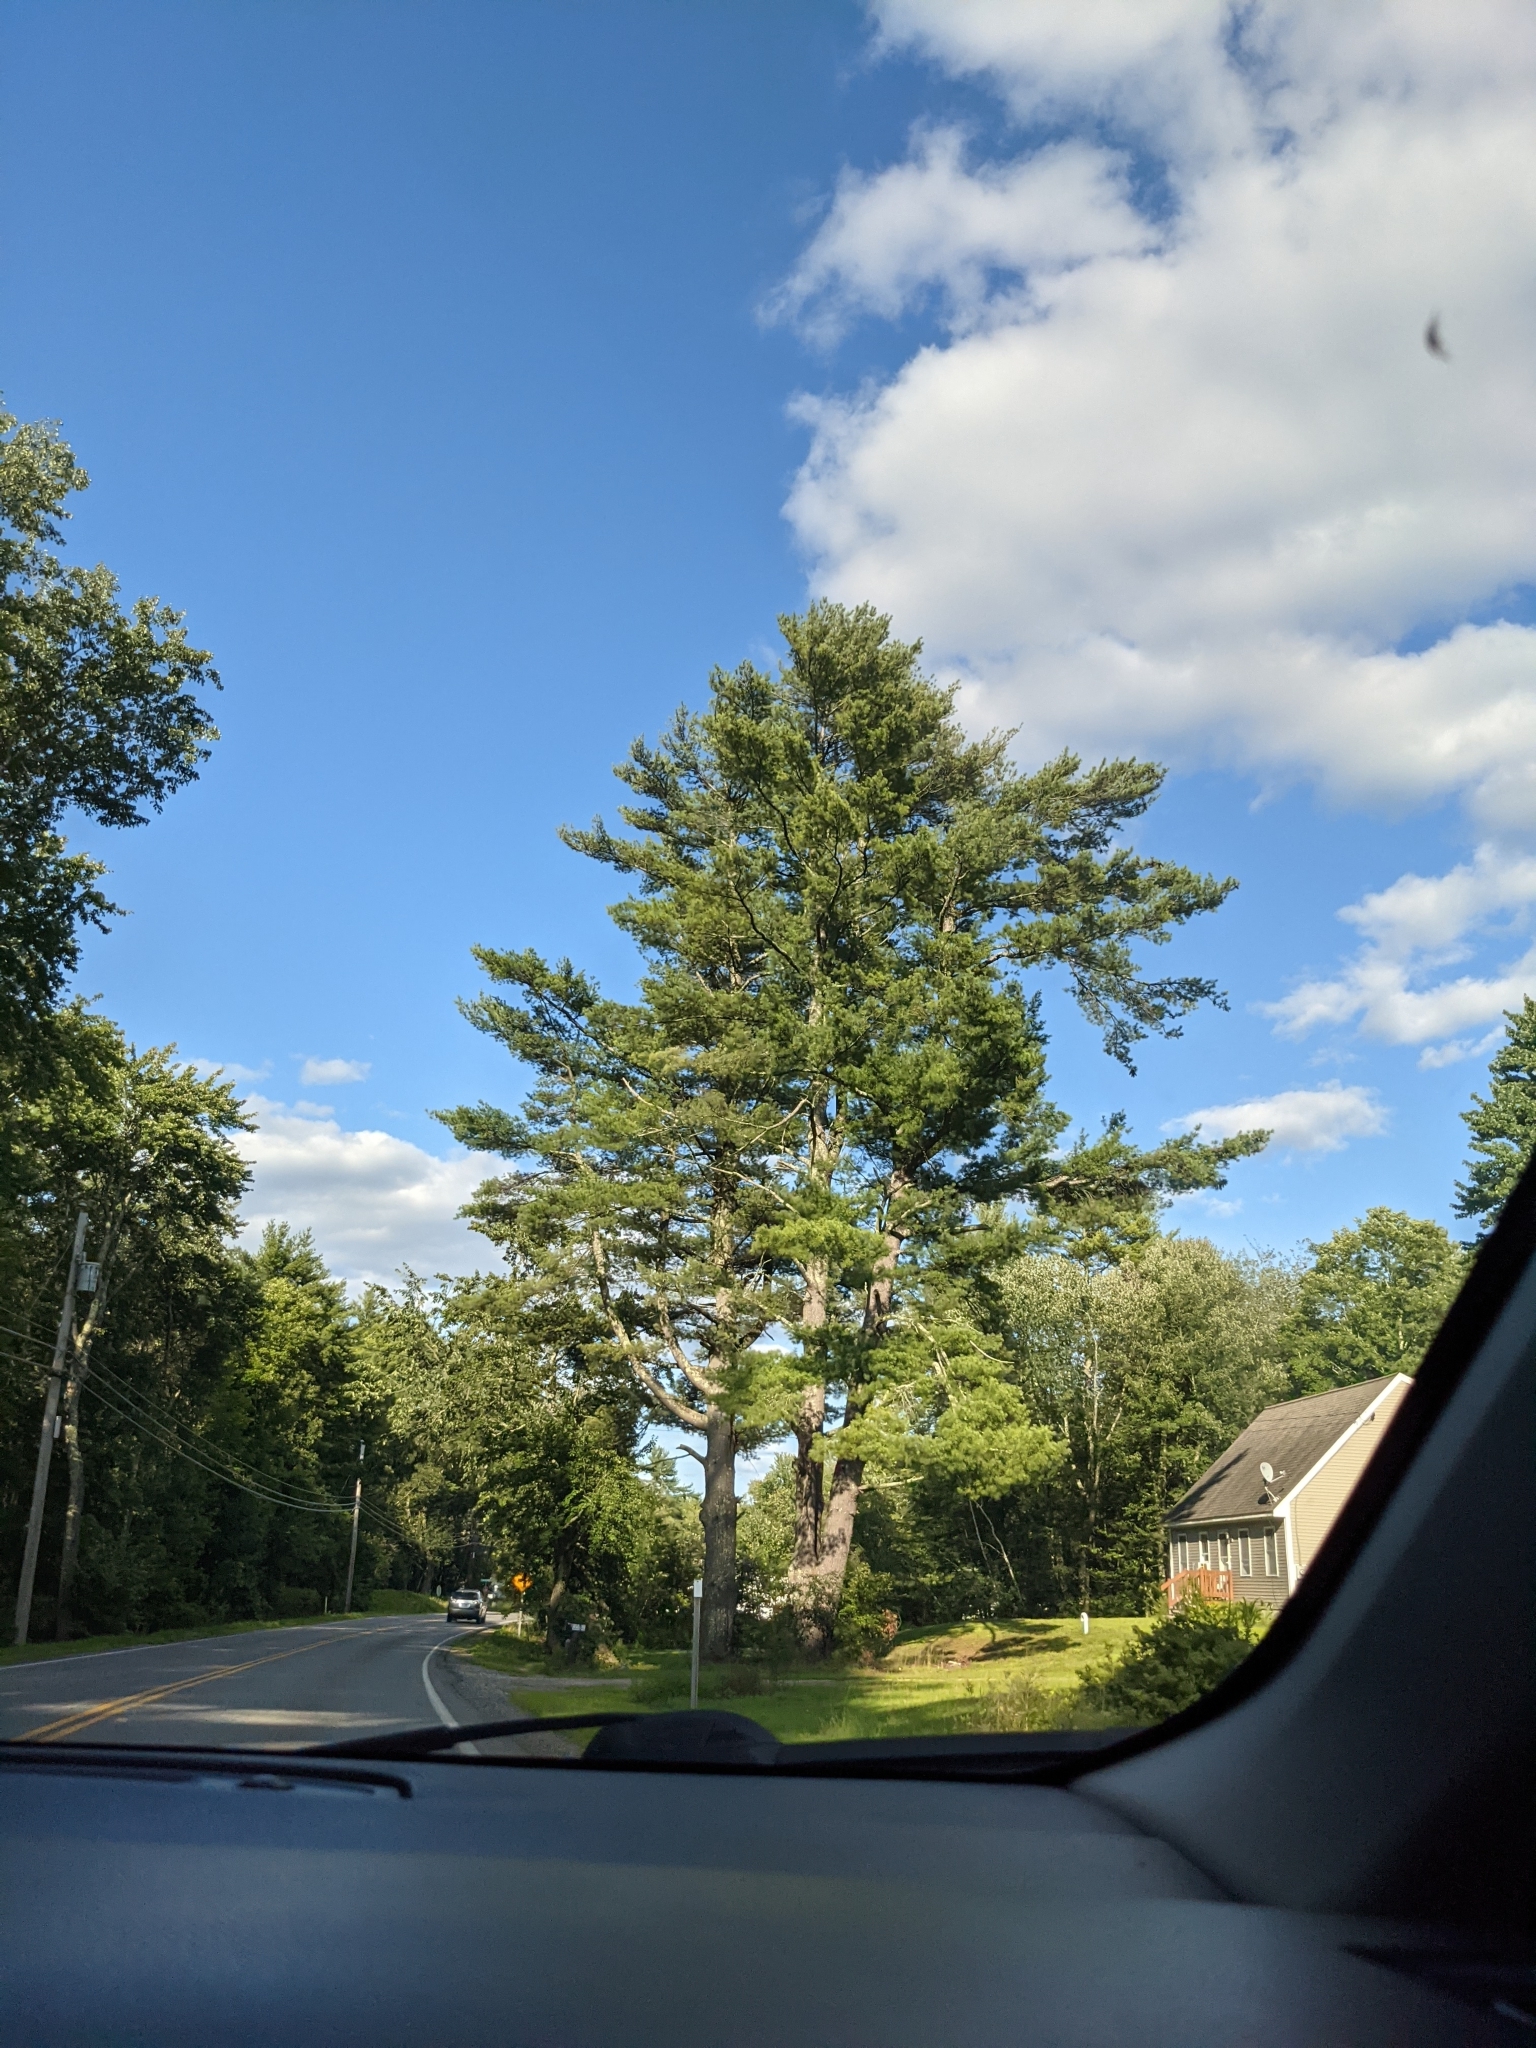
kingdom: Plantae
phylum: Tracheophyta
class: Pinopsida
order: Pinales
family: Pinaceae
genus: Pinus
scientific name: Pinus strobus
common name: Weymouth pine
